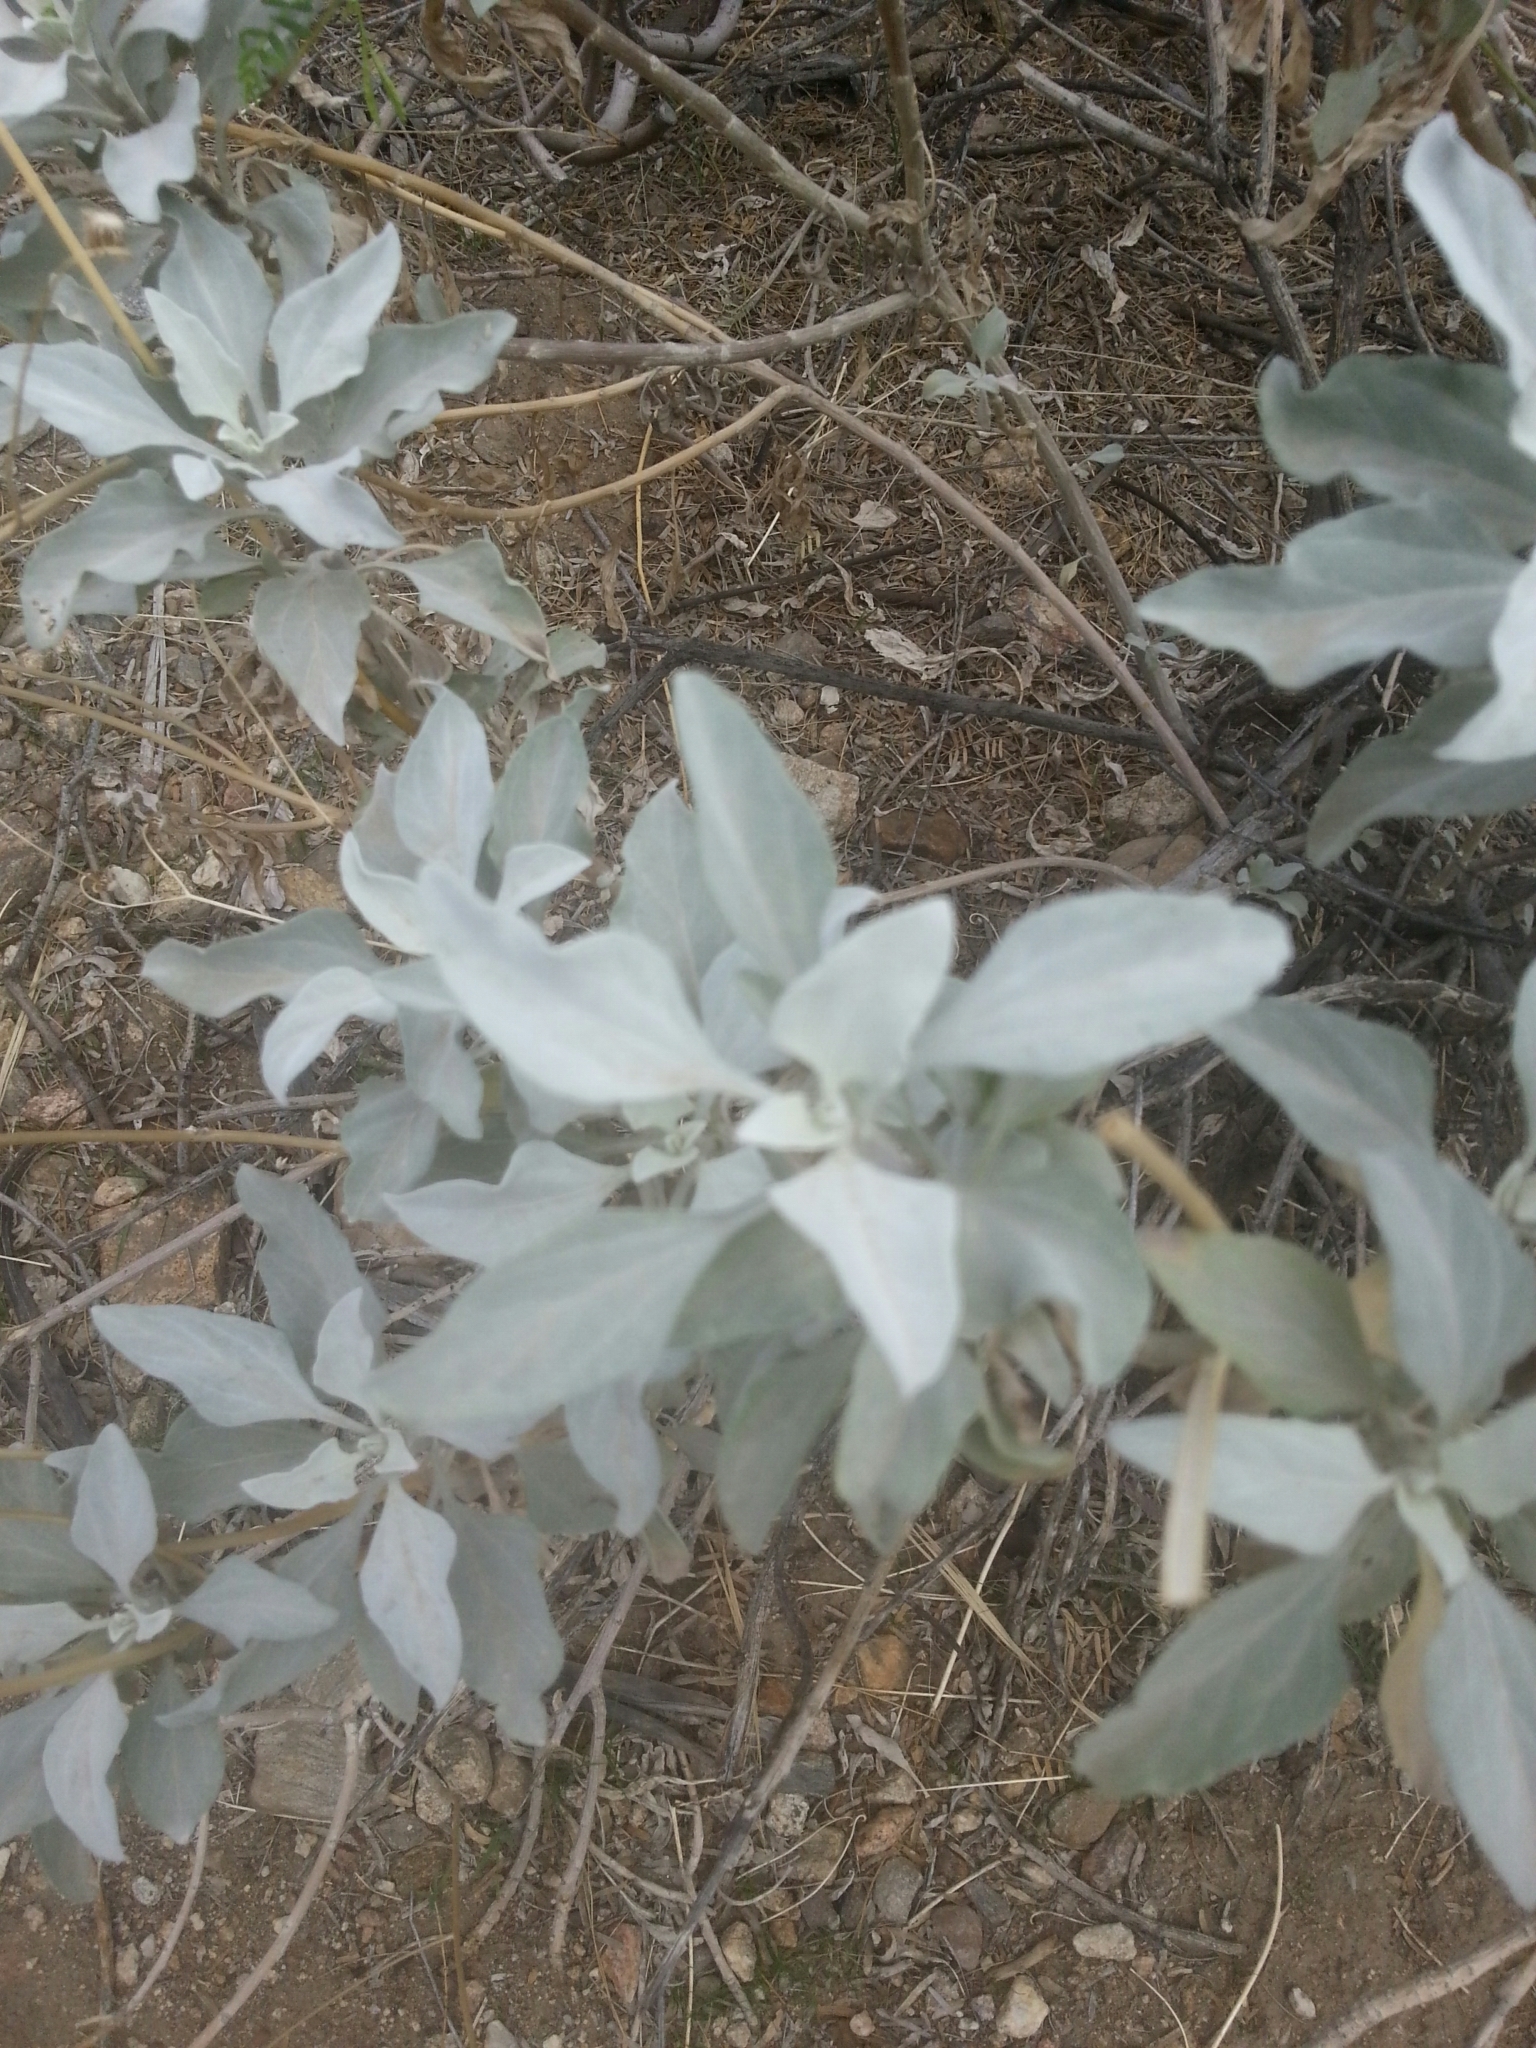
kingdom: Plantae
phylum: Tracheophyta
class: Magnoliopsida
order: Asterales
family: Asteraceae
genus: Encelia
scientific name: Encelia farinosa
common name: Brittlebush
